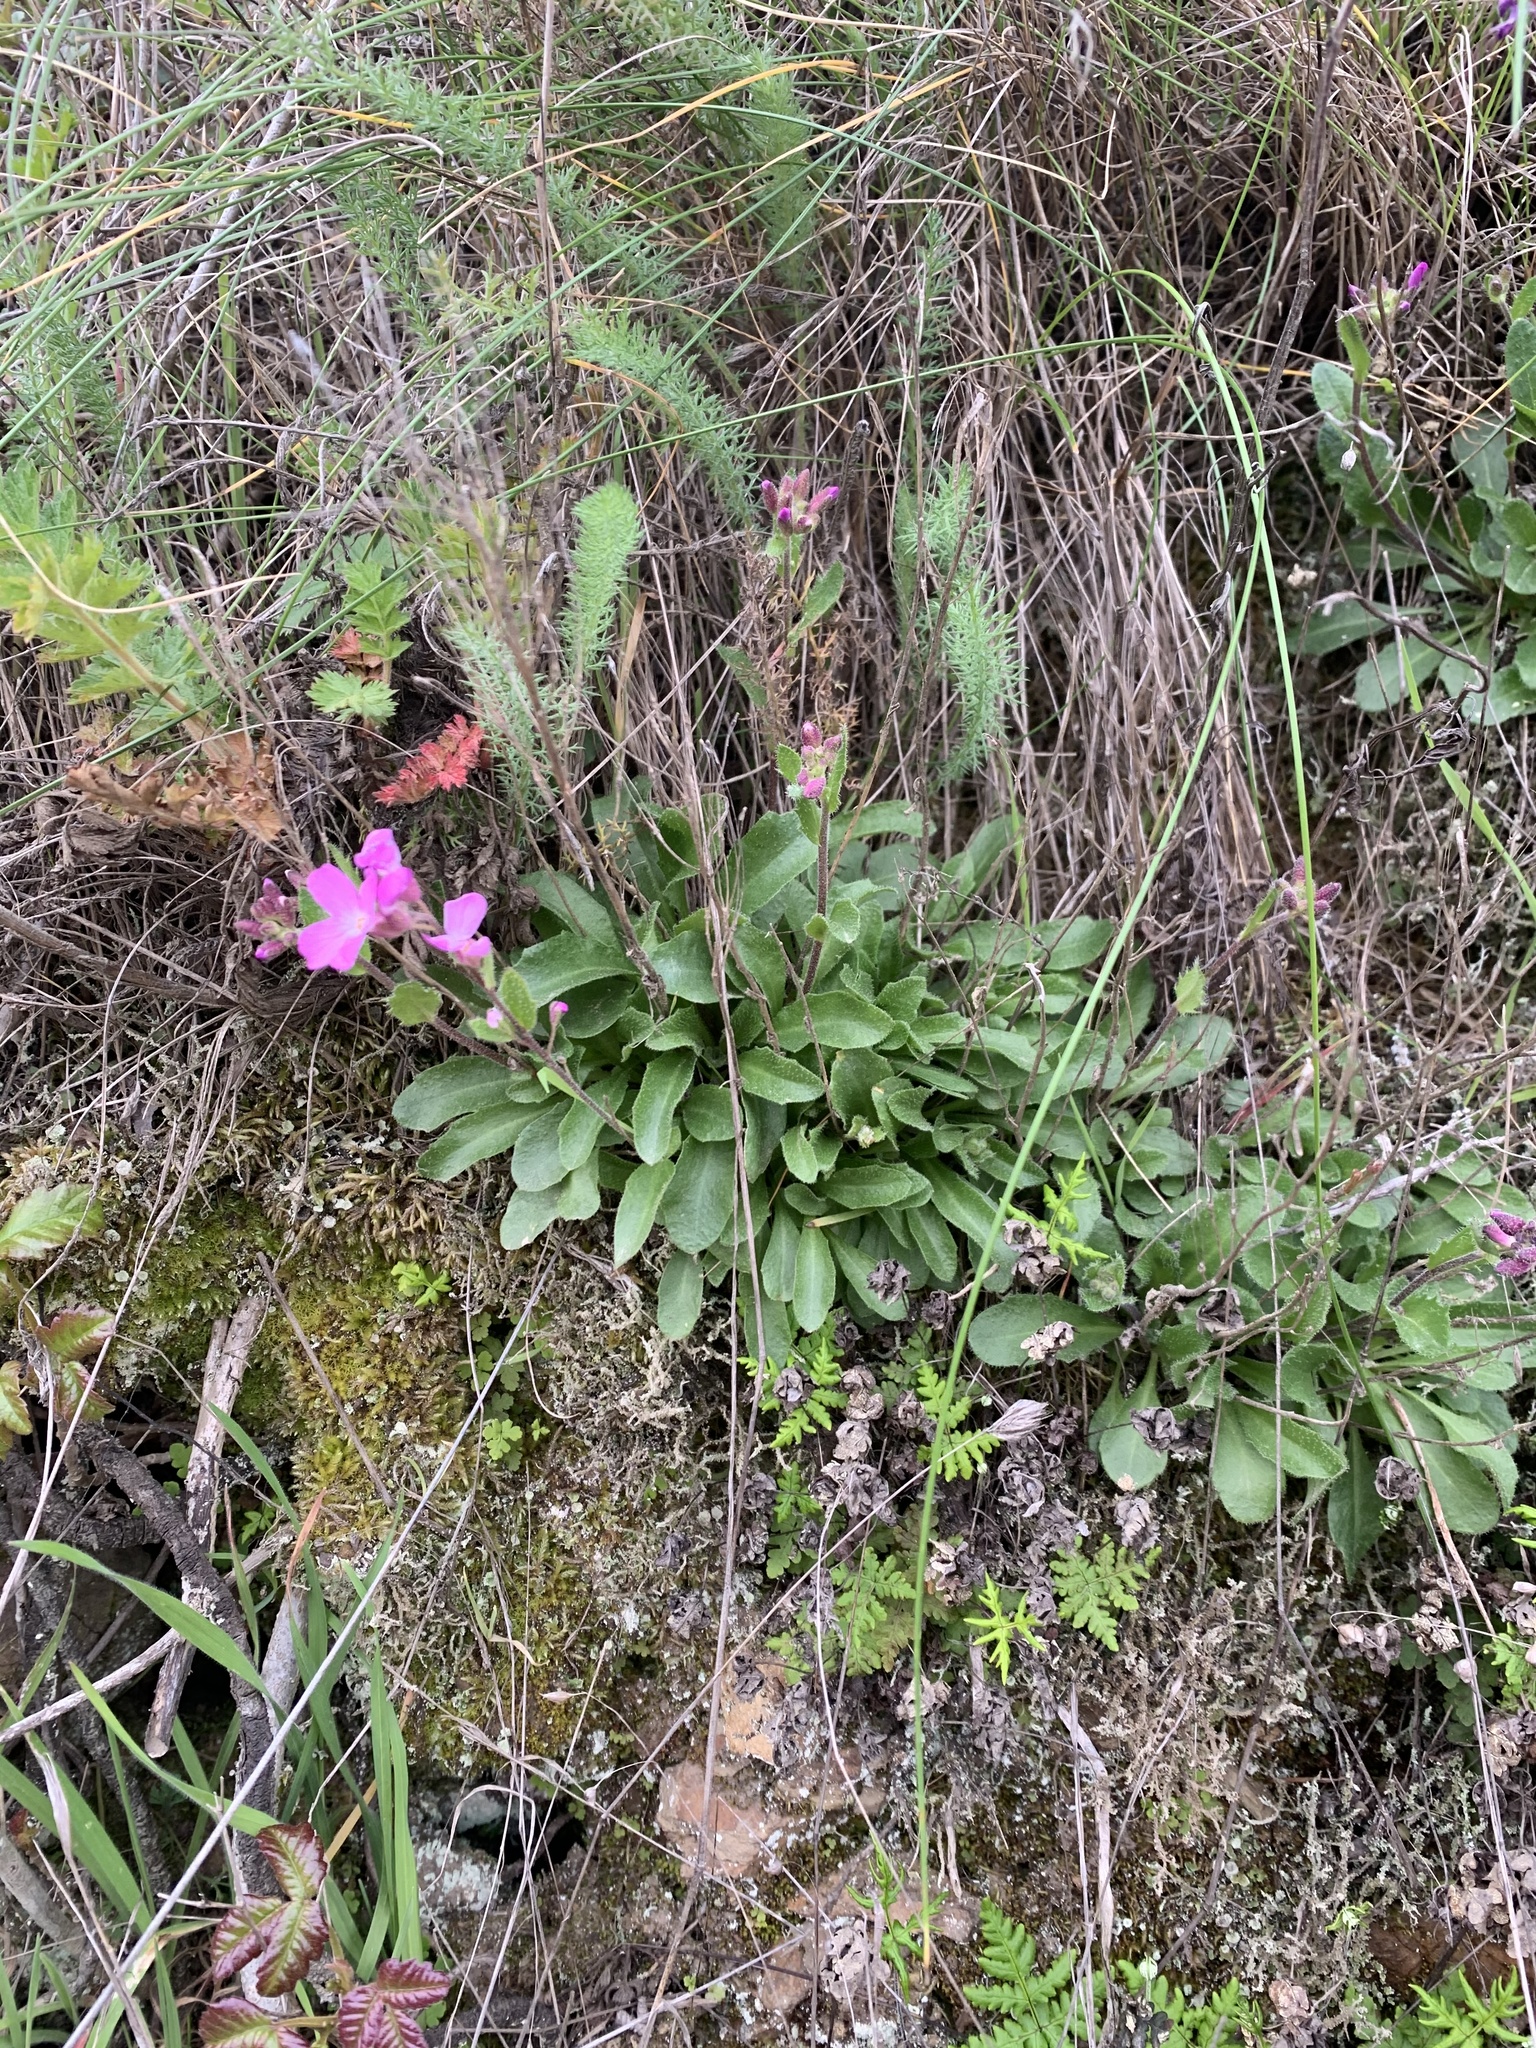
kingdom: Plantae
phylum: Tracheophyta
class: Magnoliopsida
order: Brassicales
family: Brassicaceae
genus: Arabis
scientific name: Arabis blepharophylla
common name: Rose rockcress
